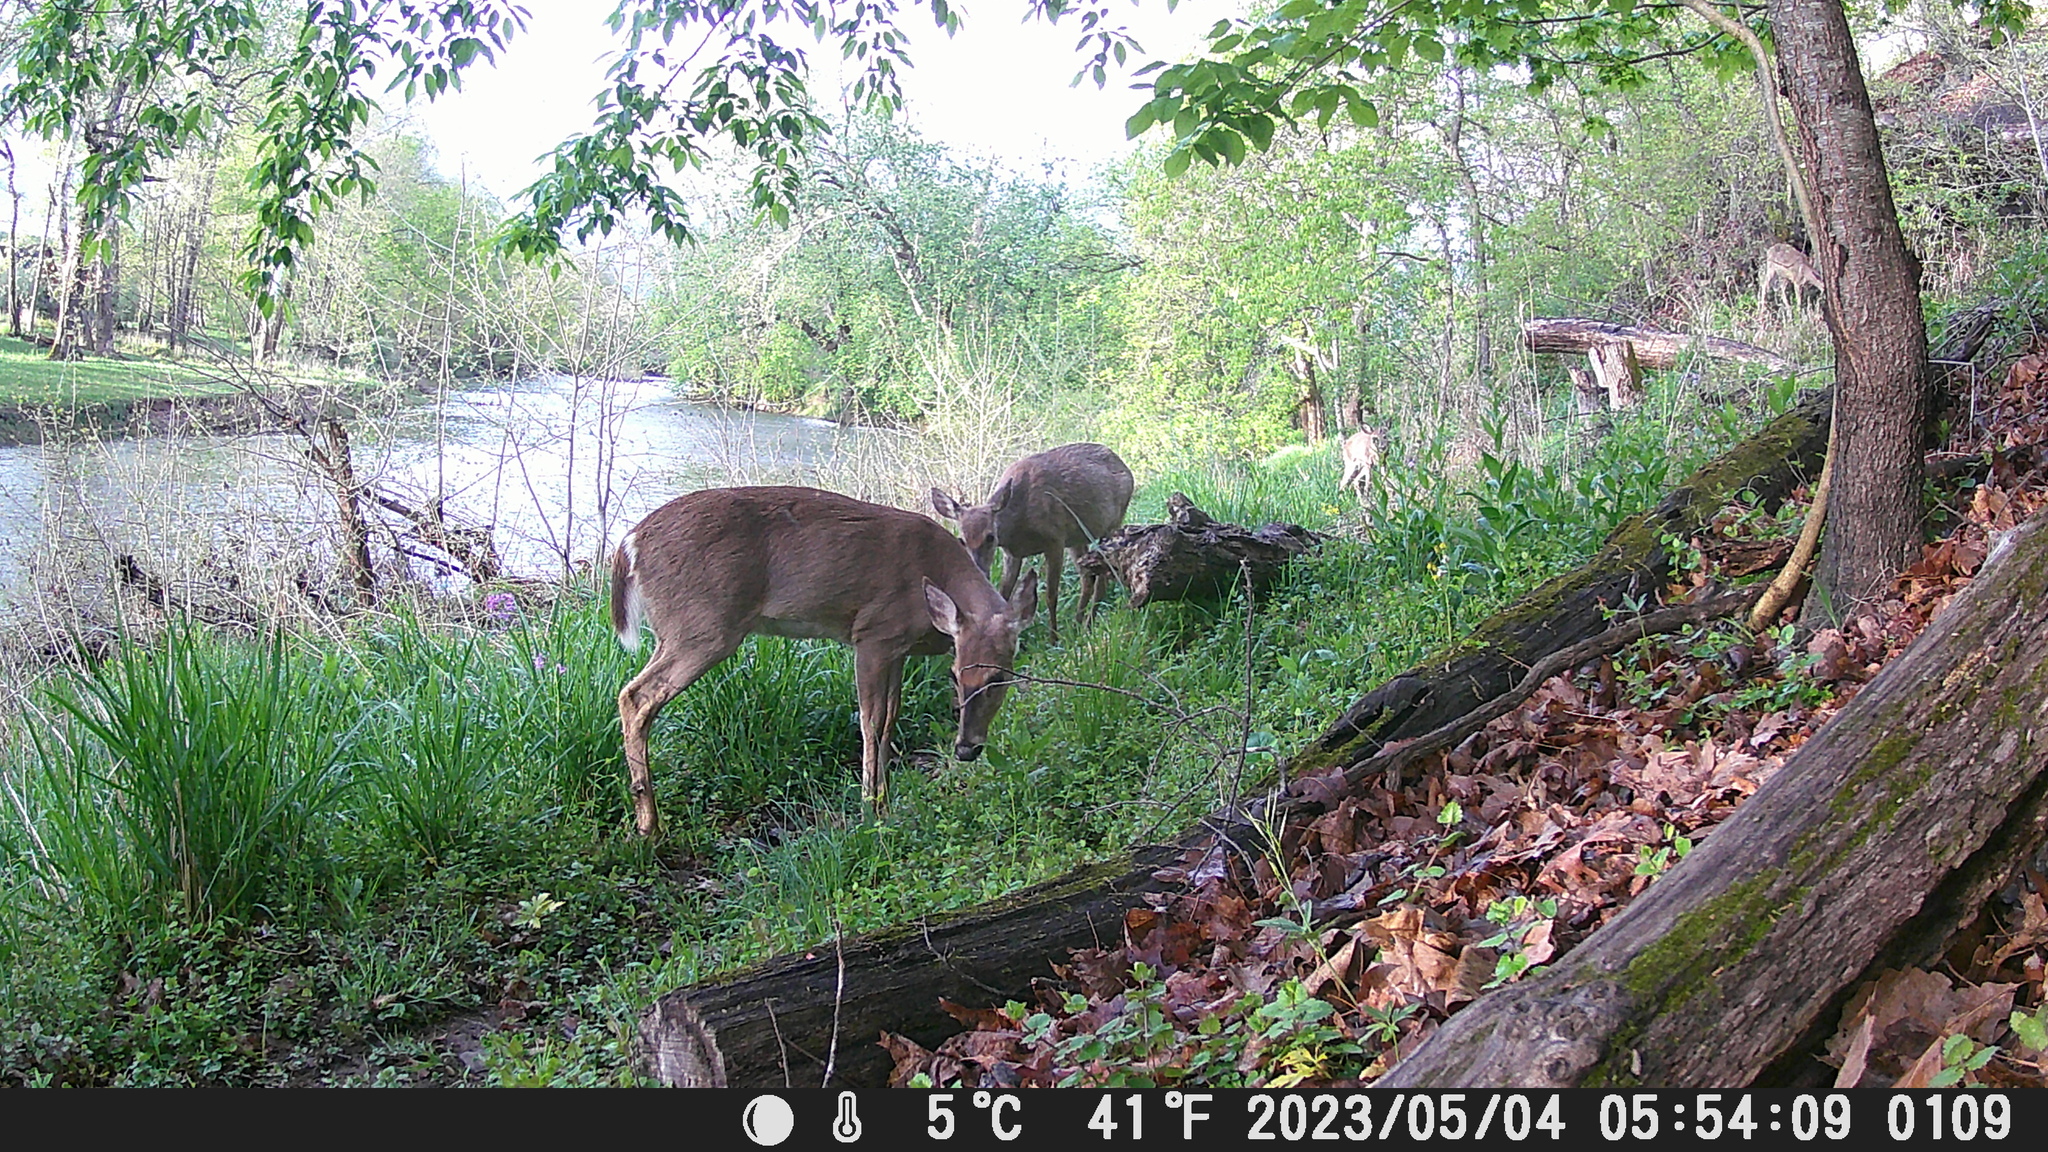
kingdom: Animalia
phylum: Chordata
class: Mammalia
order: Artiodactyla
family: Cervidae
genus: Odocoileus
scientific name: Odocoileus virginianus
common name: White-tailed deer
